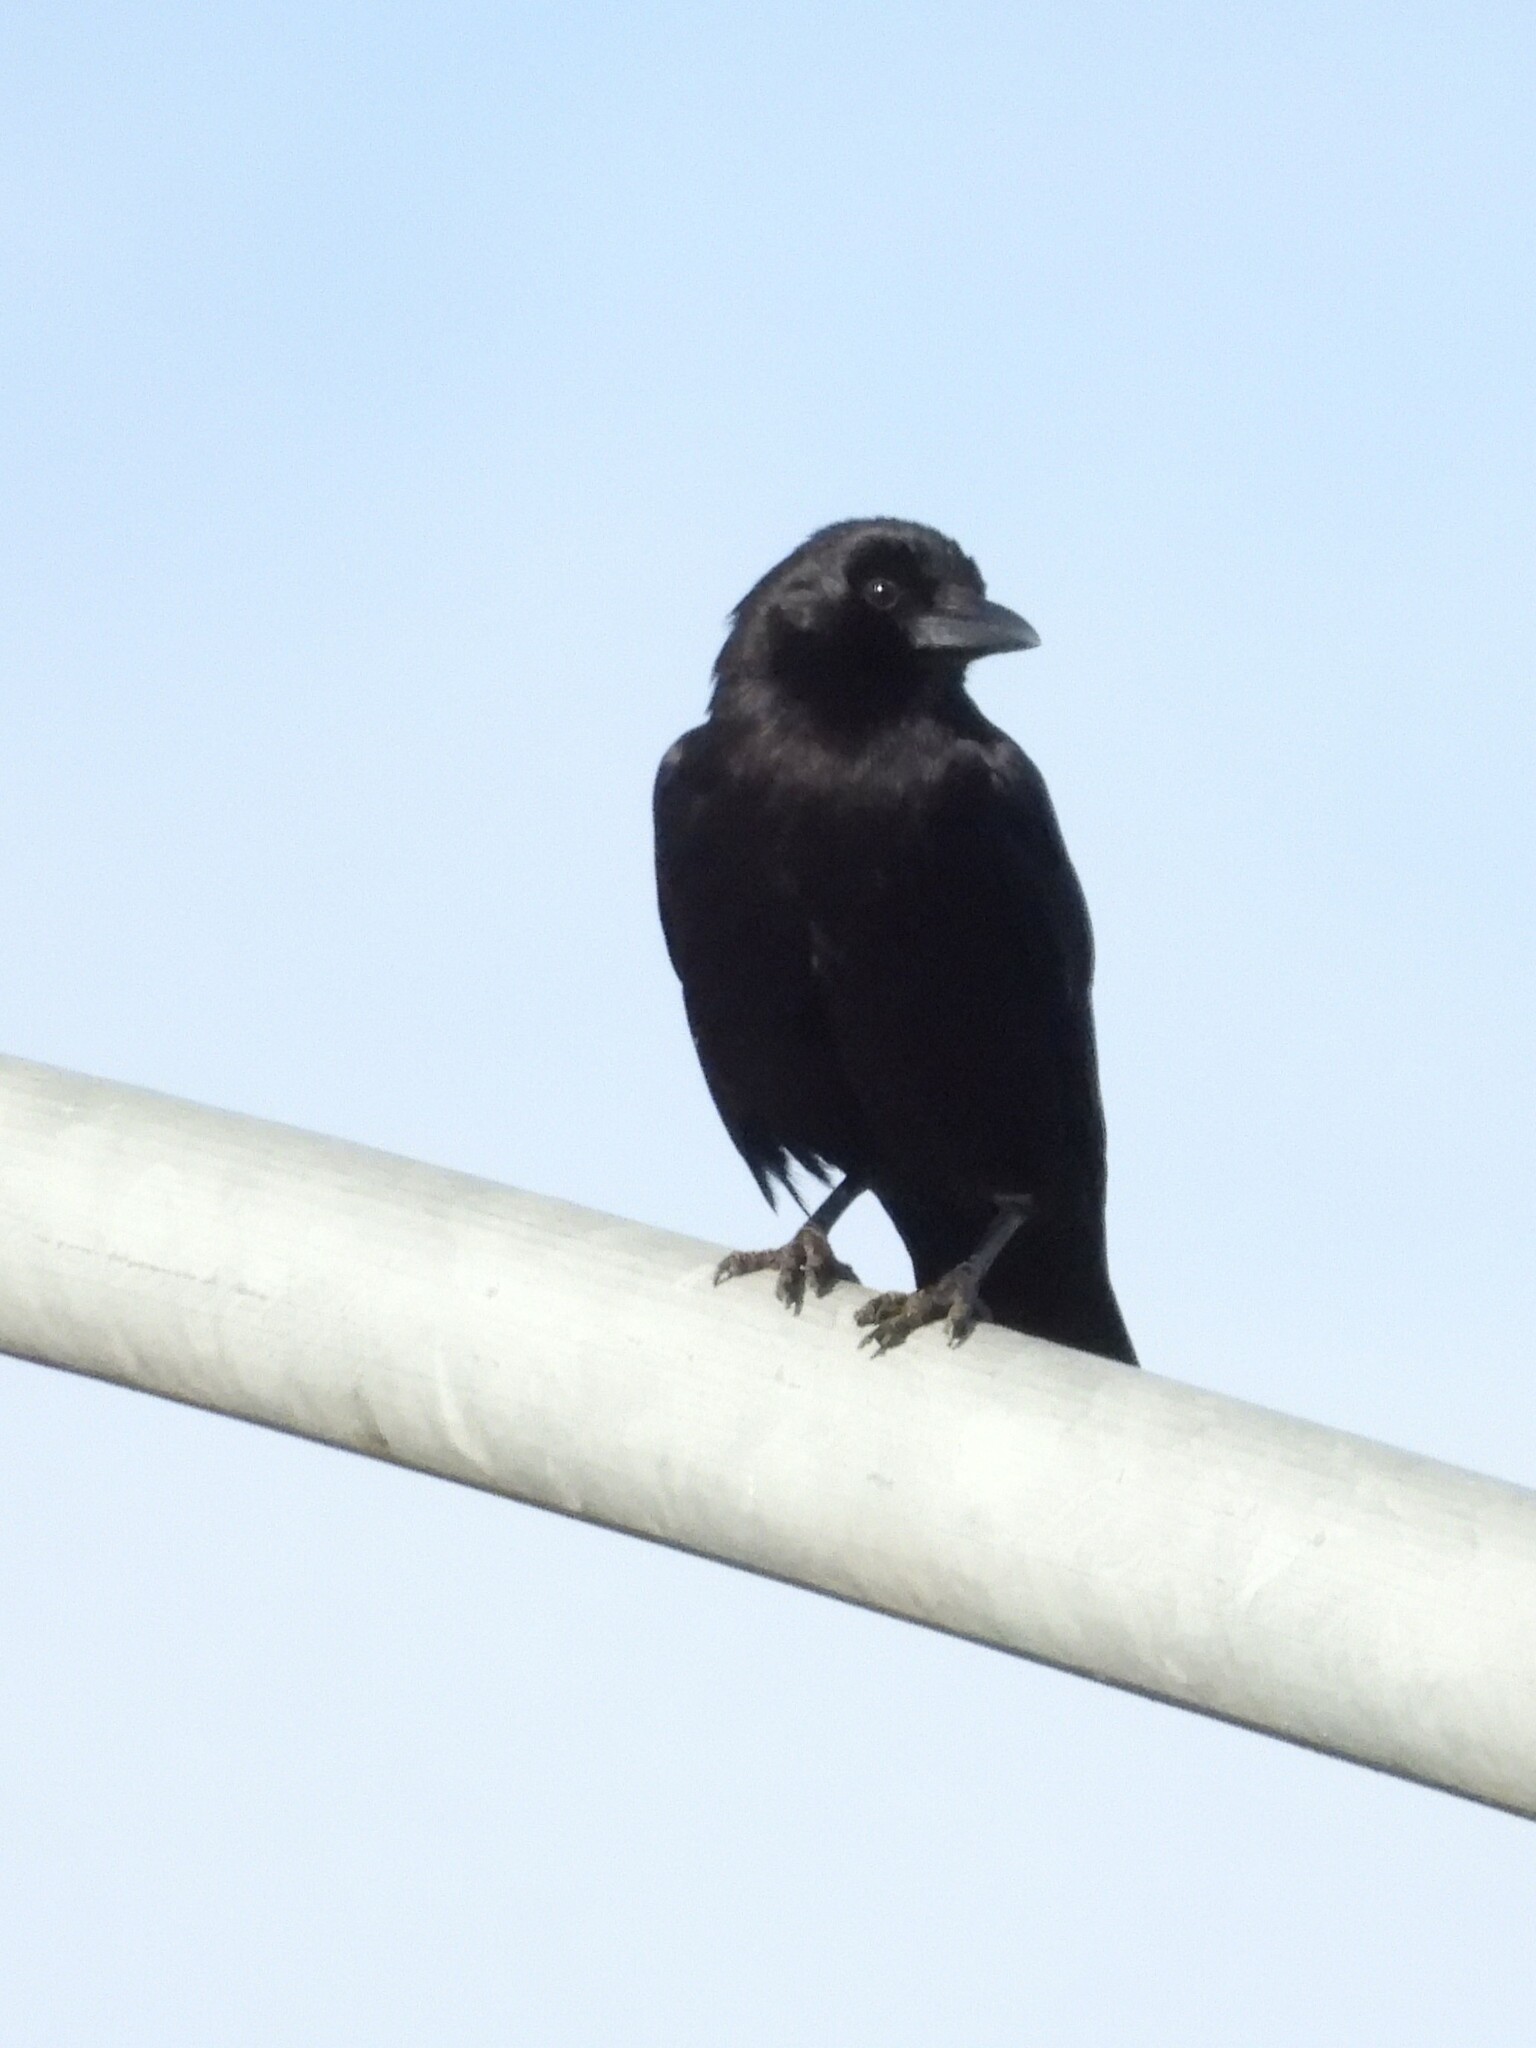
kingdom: Animalia
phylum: Chordata
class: Aves
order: Passeriformes
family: Corvidae
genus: Corvus
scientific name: Corvus brachyrhynchos
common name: American crow
